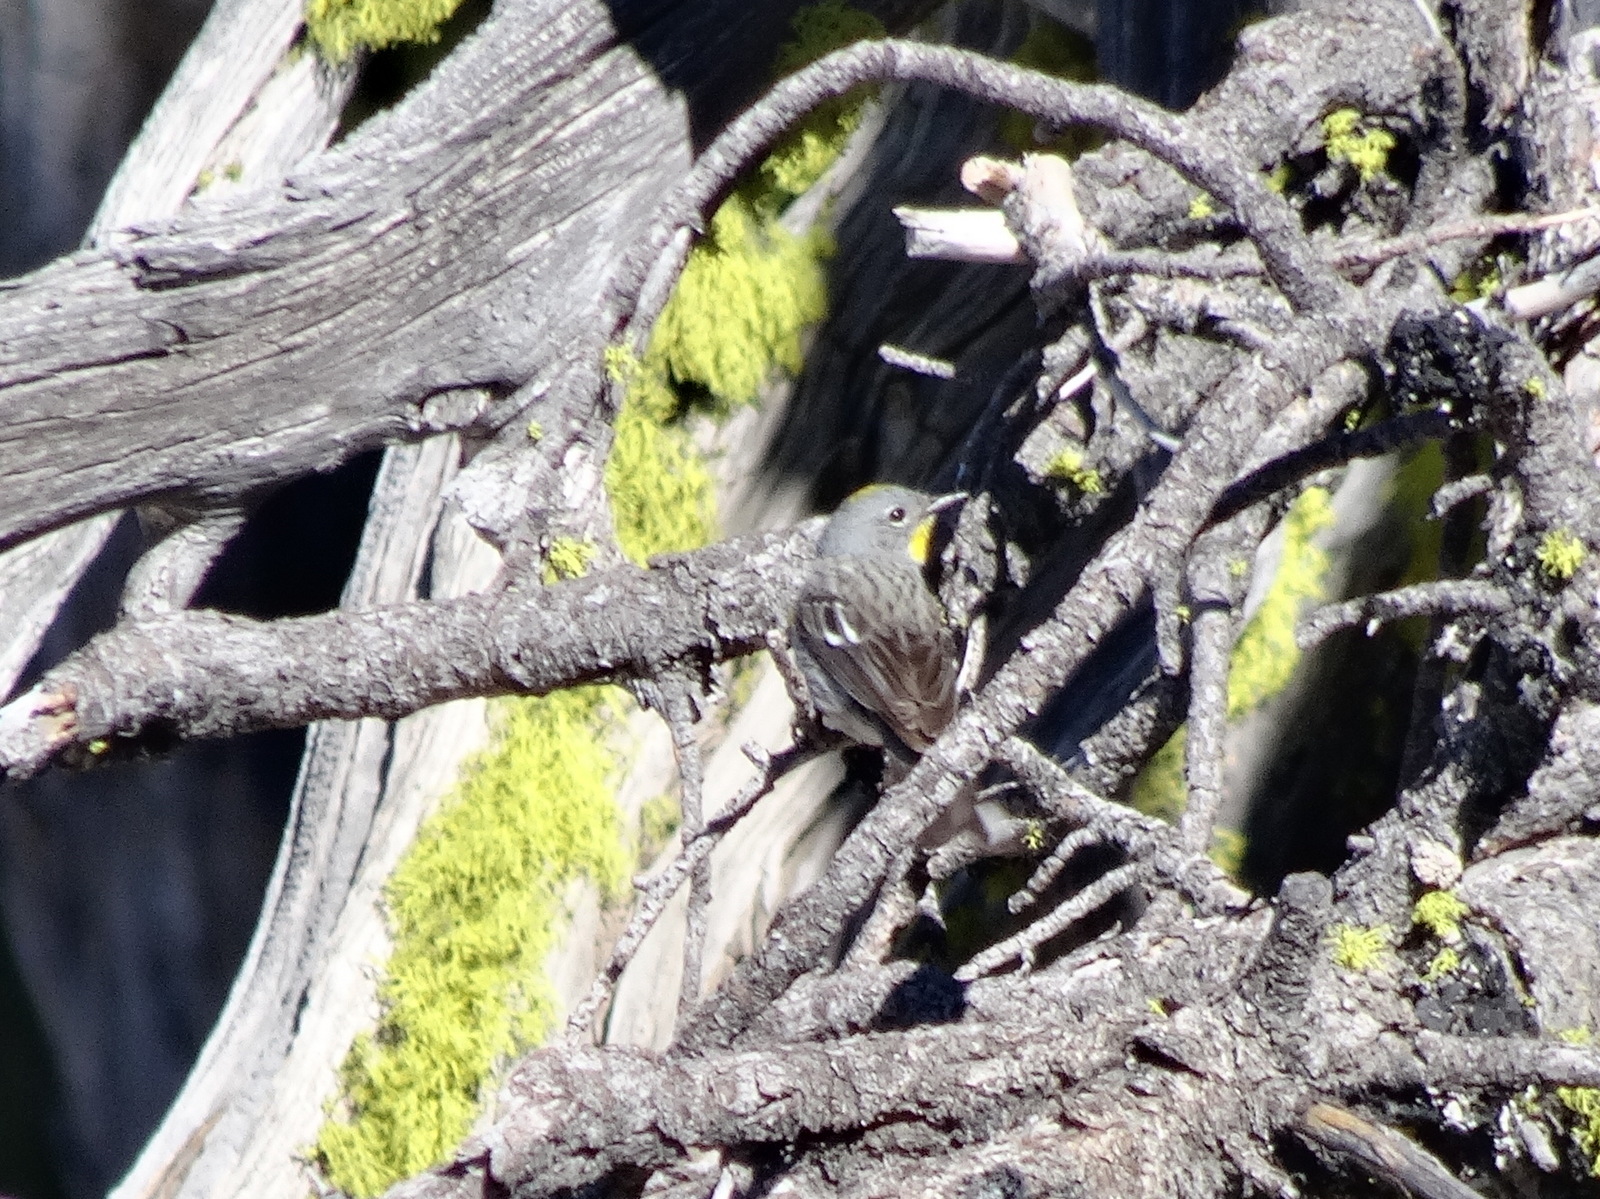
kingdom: Animalia
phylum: Chordata
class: Aves
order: Passeriformes
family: Parulidae
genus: Setophaga
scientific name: Setophaga auduboni
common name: Audubon's warbler
